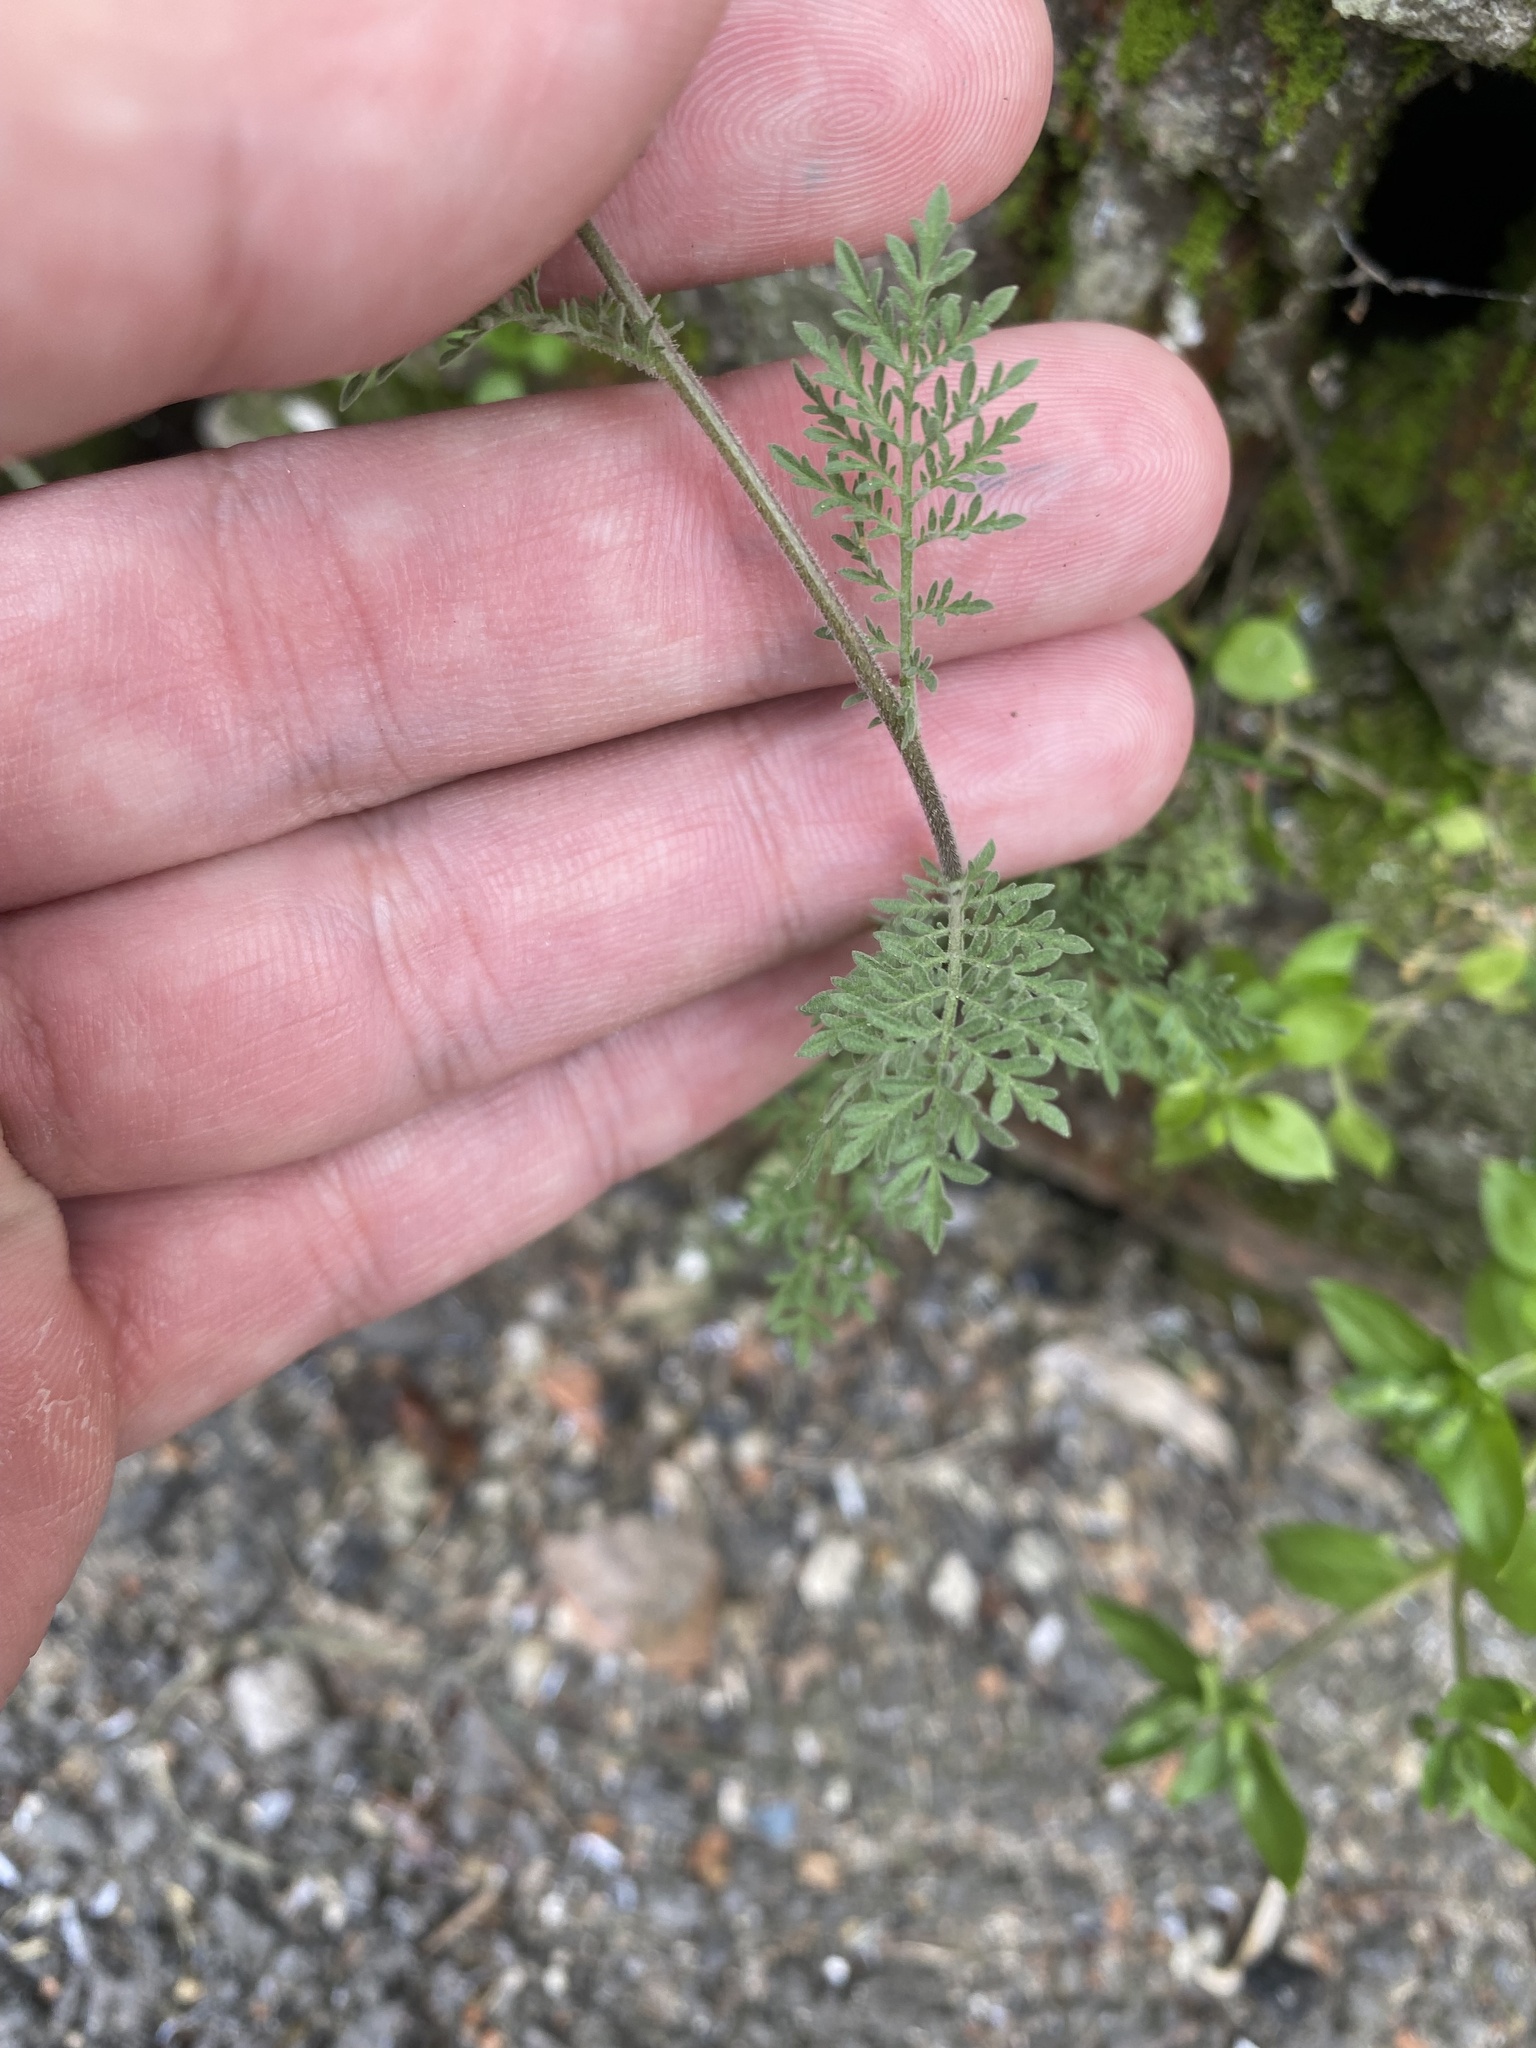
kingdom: Plantae
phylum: Tracheophyta
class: Magnoliopsida
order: Brassicales
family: Brassicaceae
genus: Descurainia
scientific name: Descurainia sophia
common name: Flixweed
